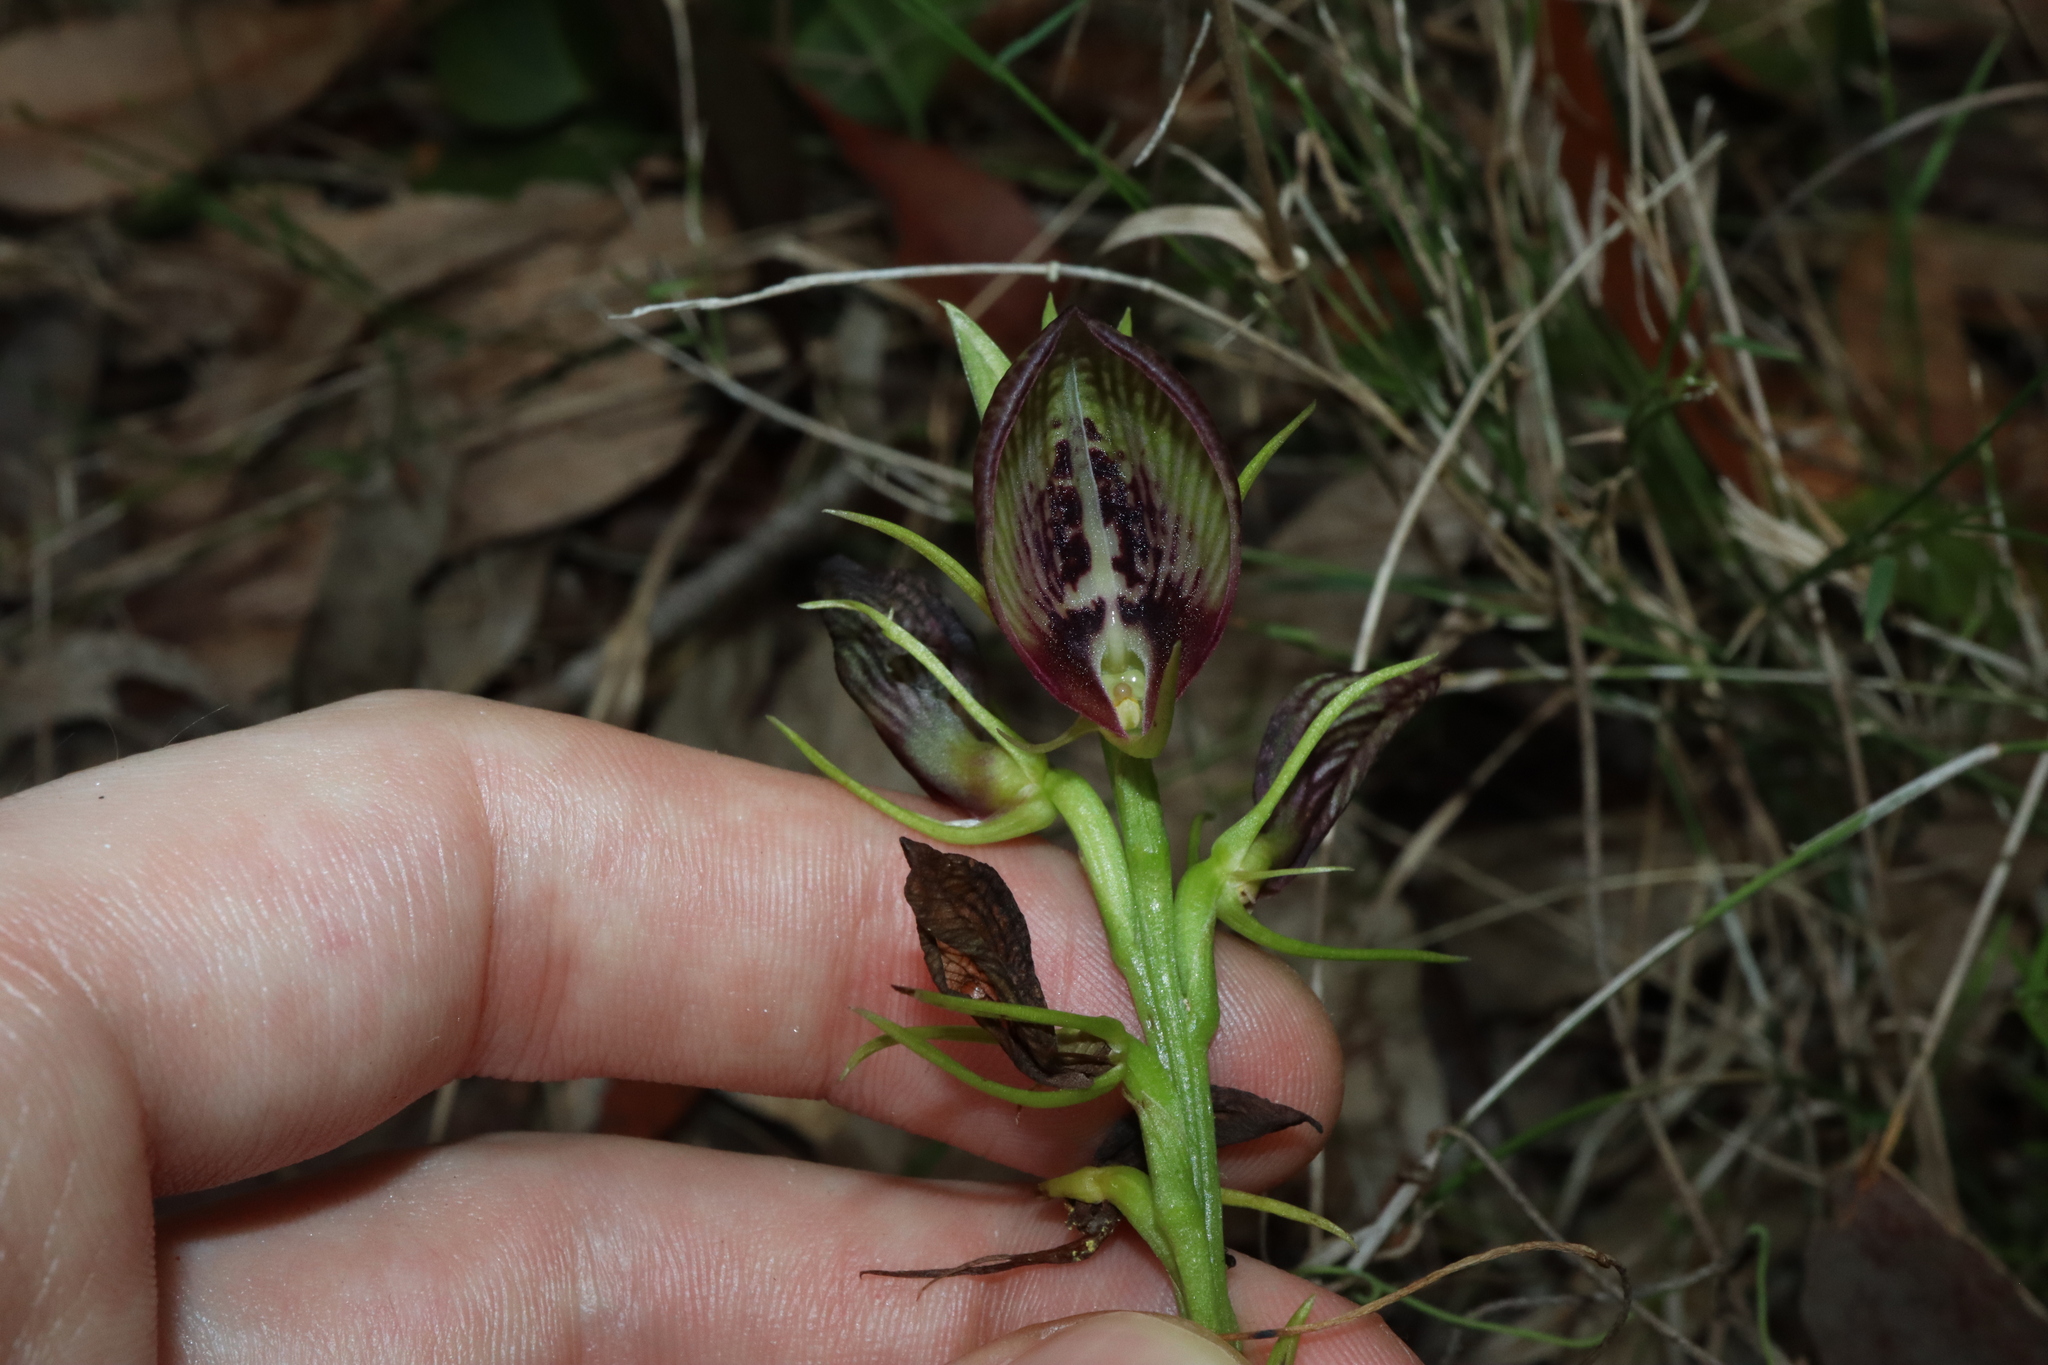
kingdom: Plantae
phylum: Tracheophyta
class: Liliopsida
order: Asparagales
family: Orchidaceae
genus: Cryptostylis
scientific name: Cryptostylis erecta
